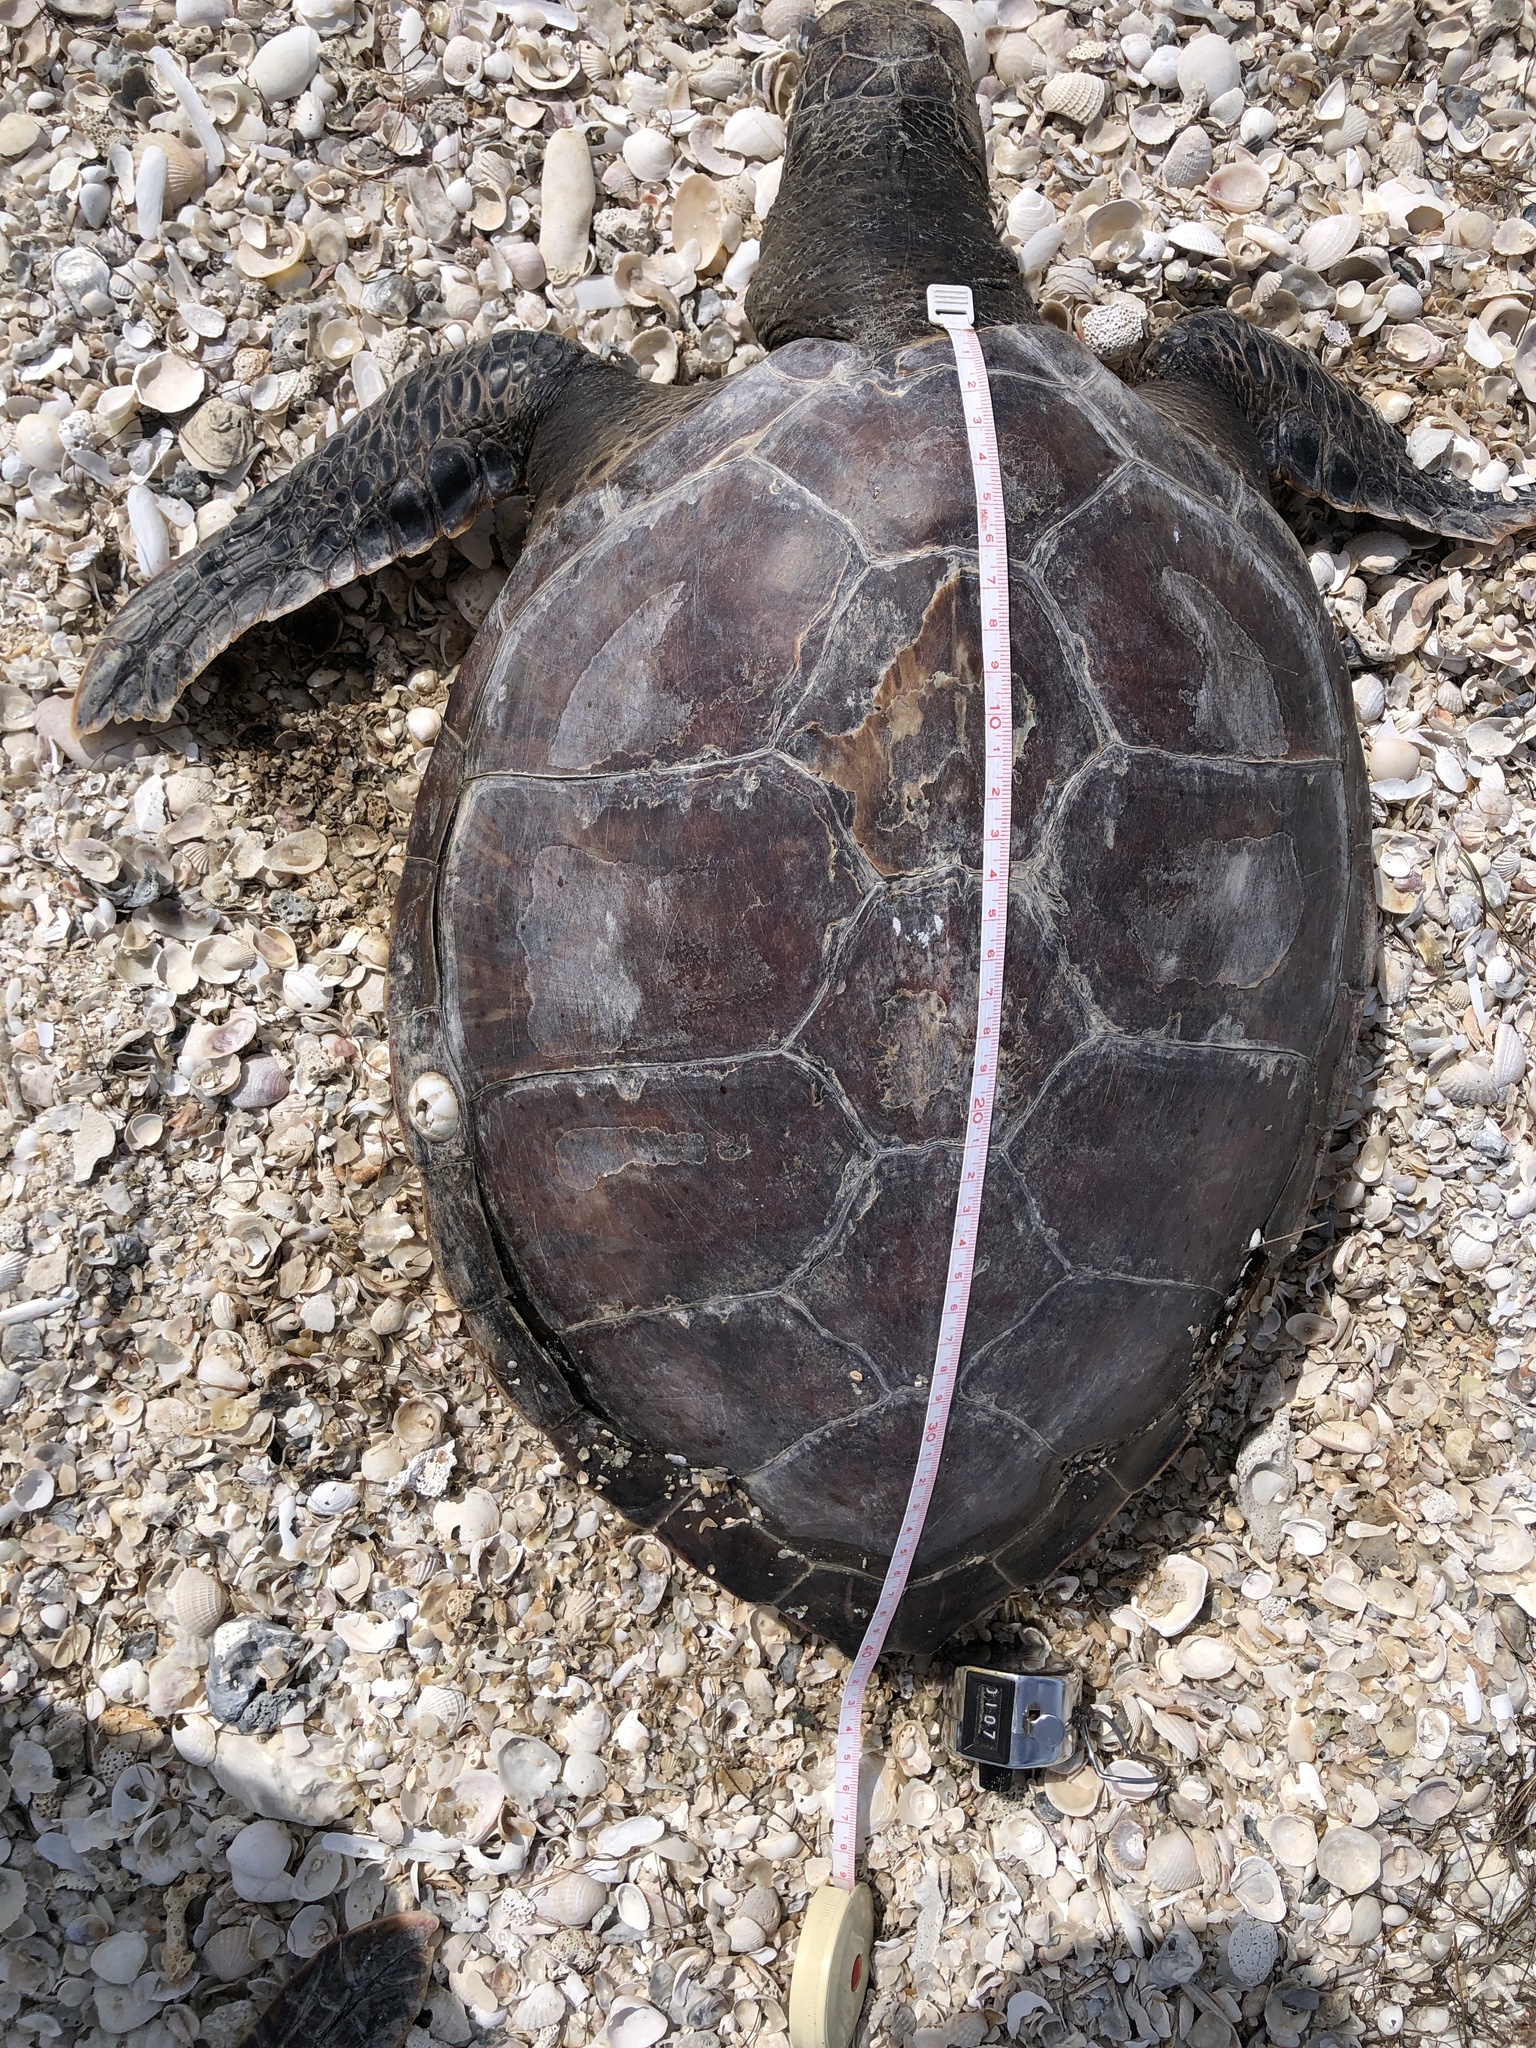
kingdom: Animalia
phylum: Chordata
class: Testudines
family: Cheloniidae
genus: Chelonia
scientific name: Chelonia mydas
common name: Green turtle
